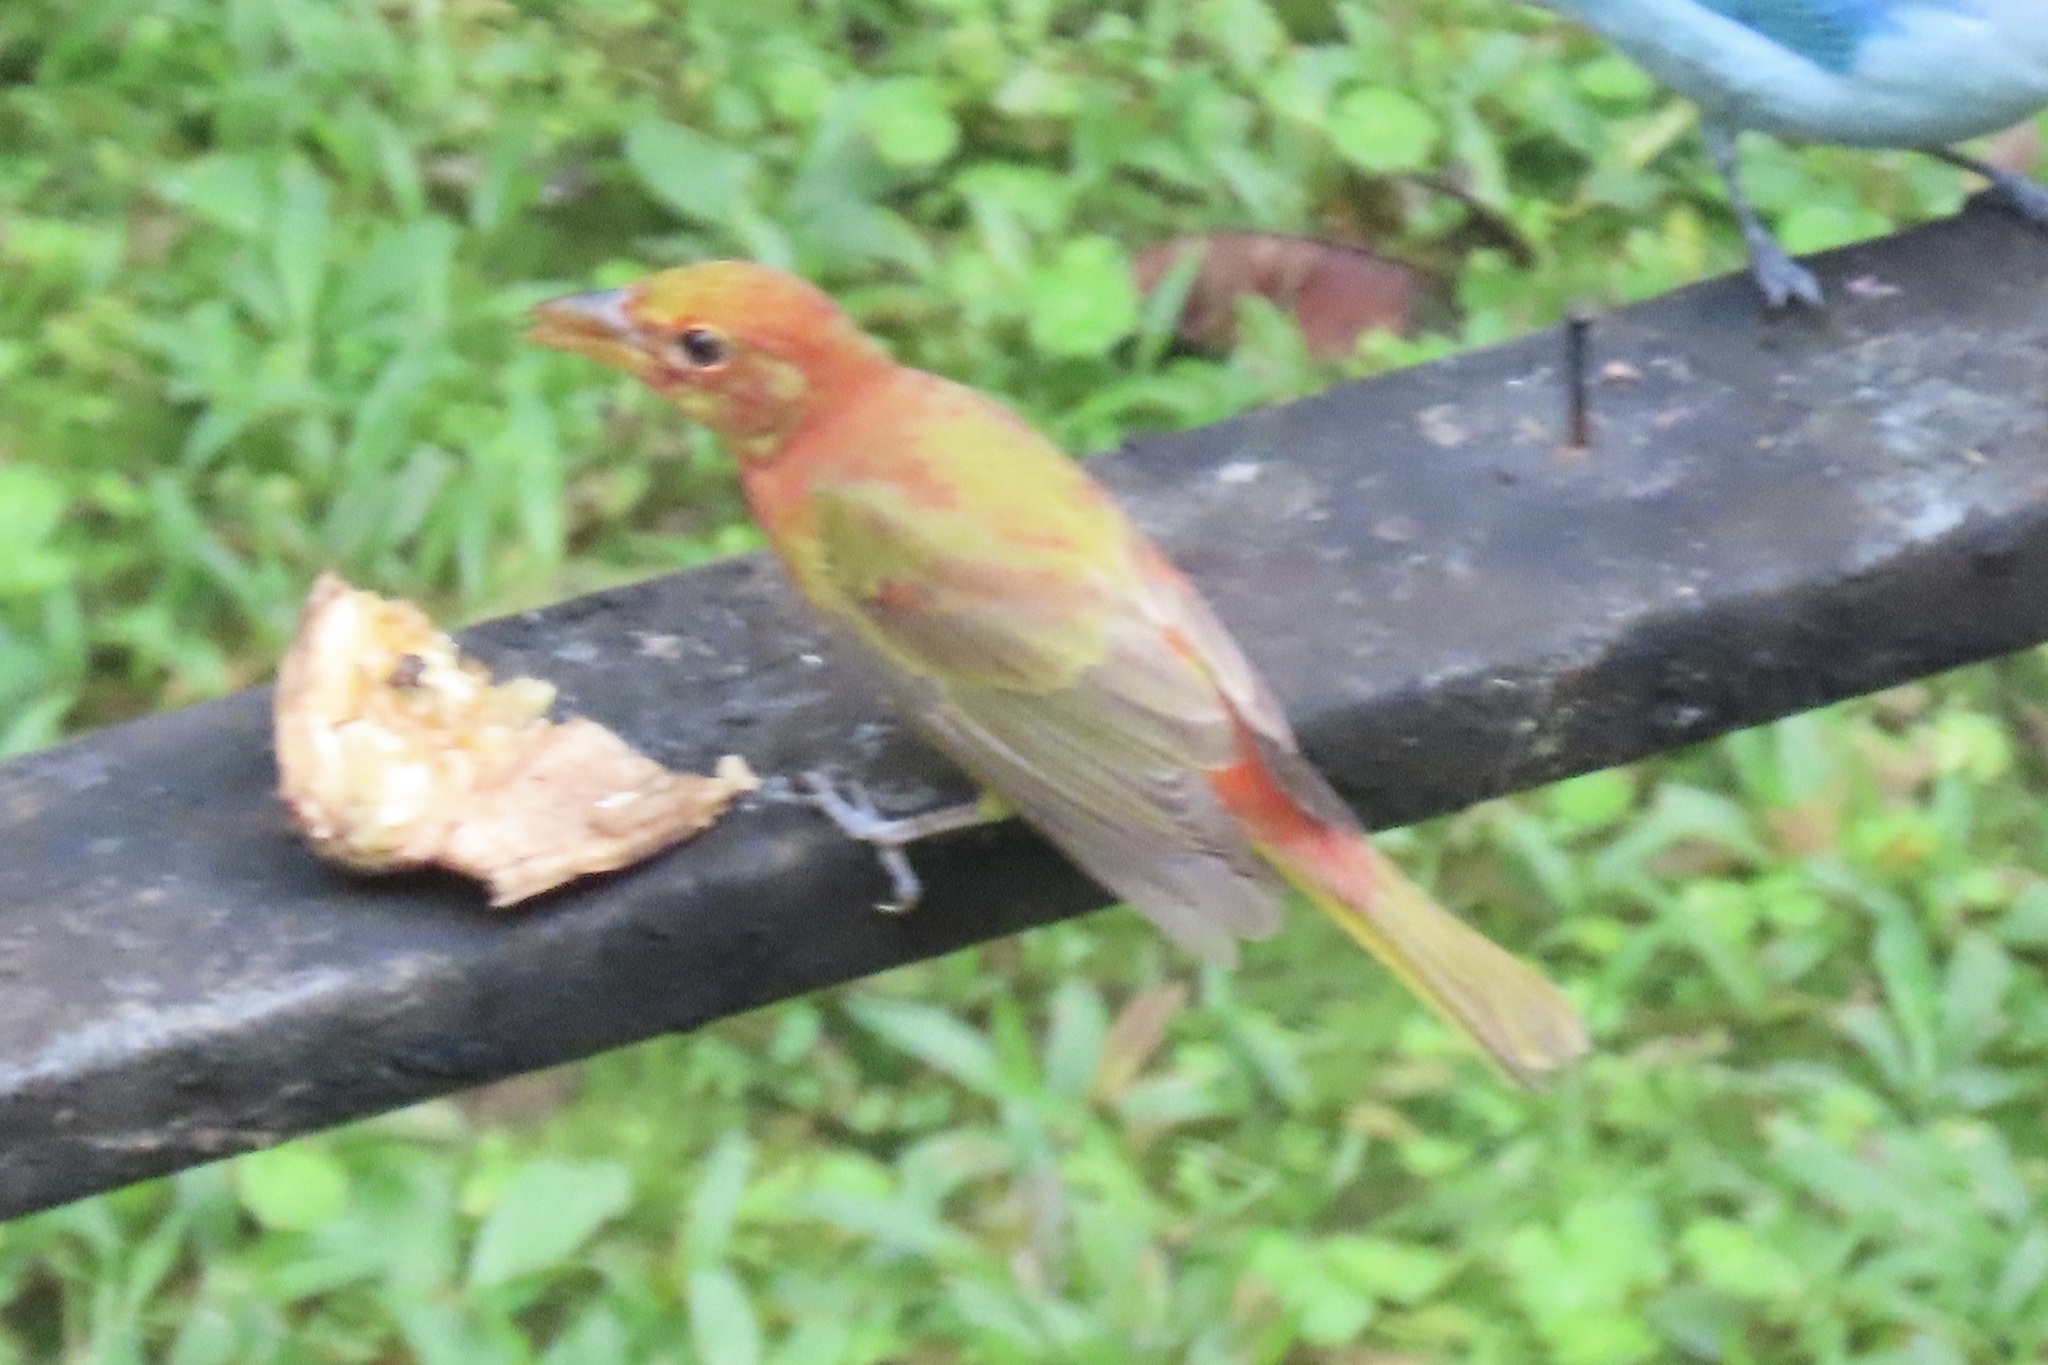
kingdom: Animalia
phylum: Chordata
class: Aves
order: Passeriformes
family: Cardinalidae
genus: Piranga
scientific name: Piranga rubra
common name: Summer tanager
